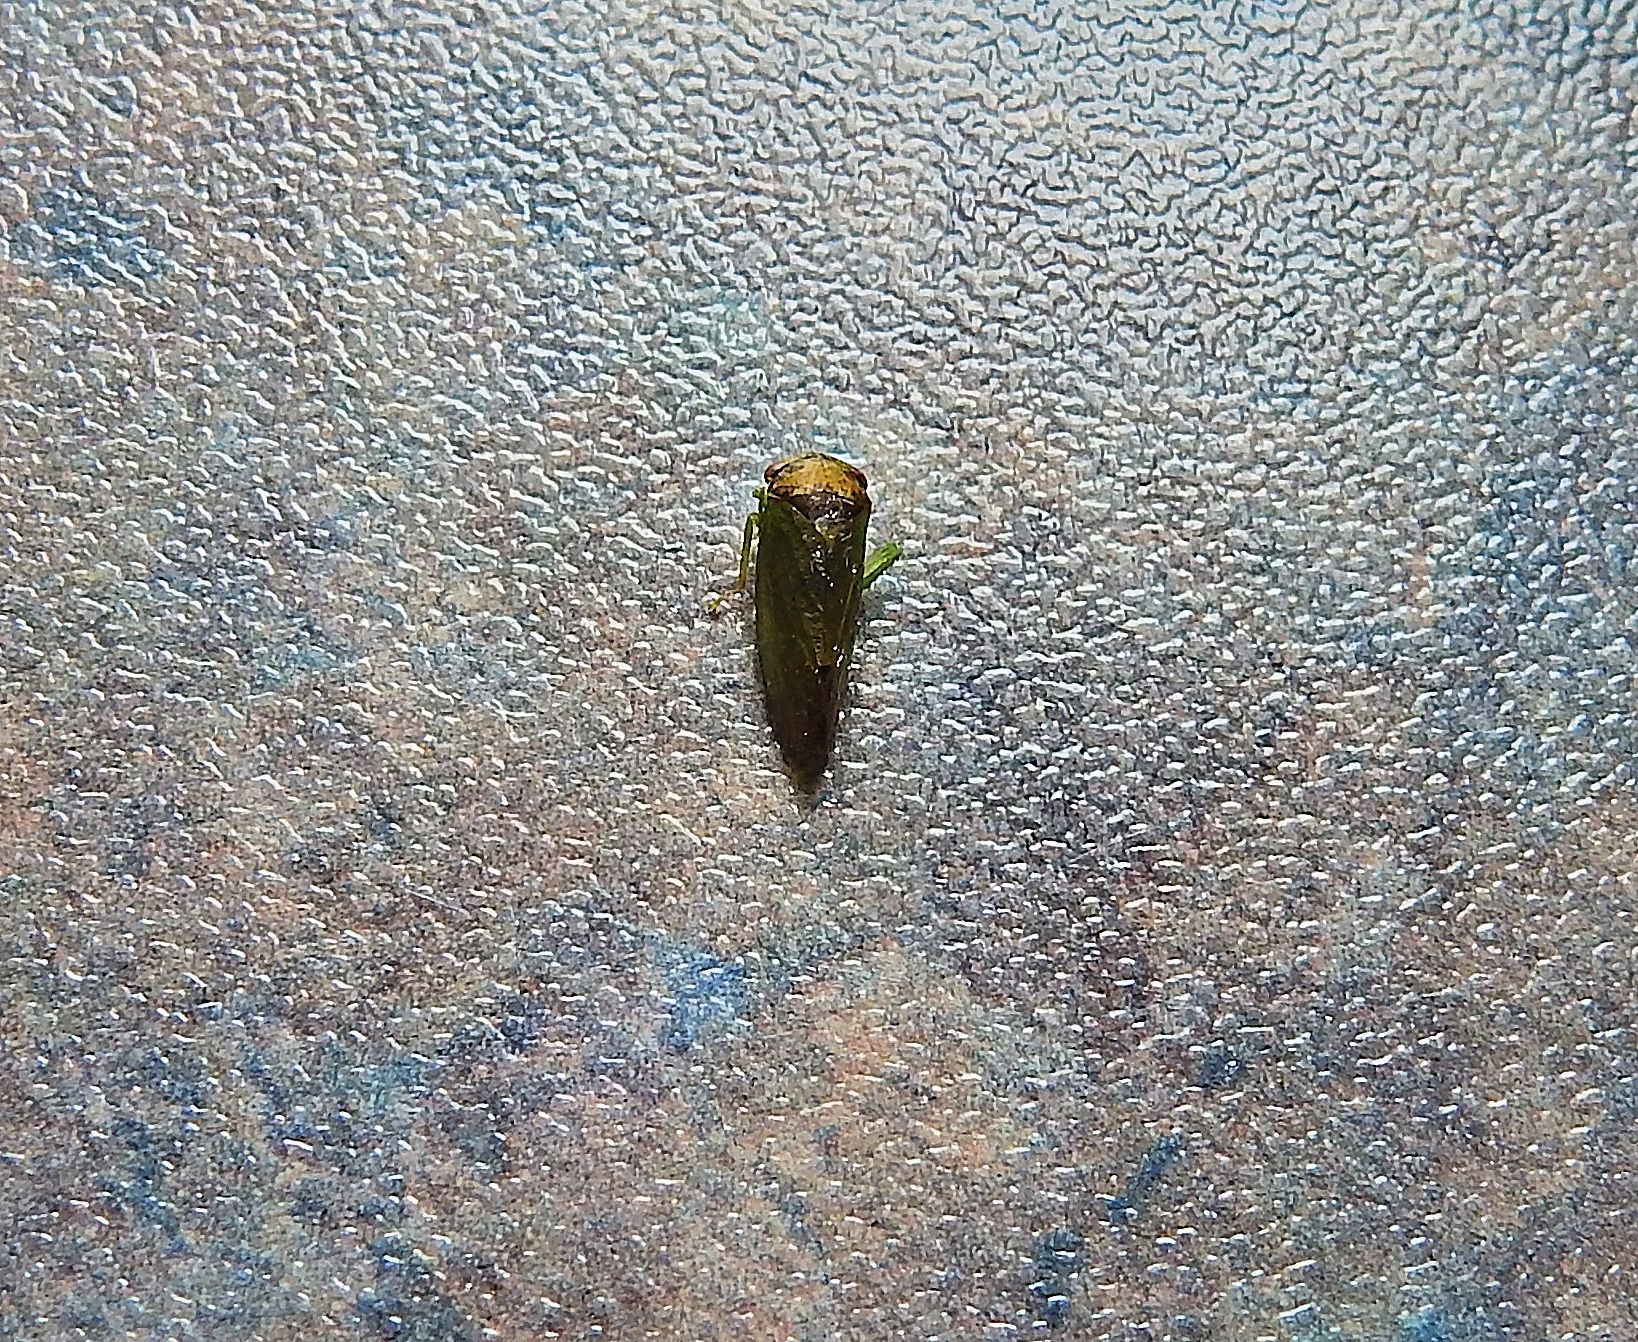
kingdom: Animalia
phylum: Arthropoda
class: Insecta
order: Hemiptera
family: Cicadellidae
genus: Iassus
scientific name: Iassus lanio
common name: Leafhopper
